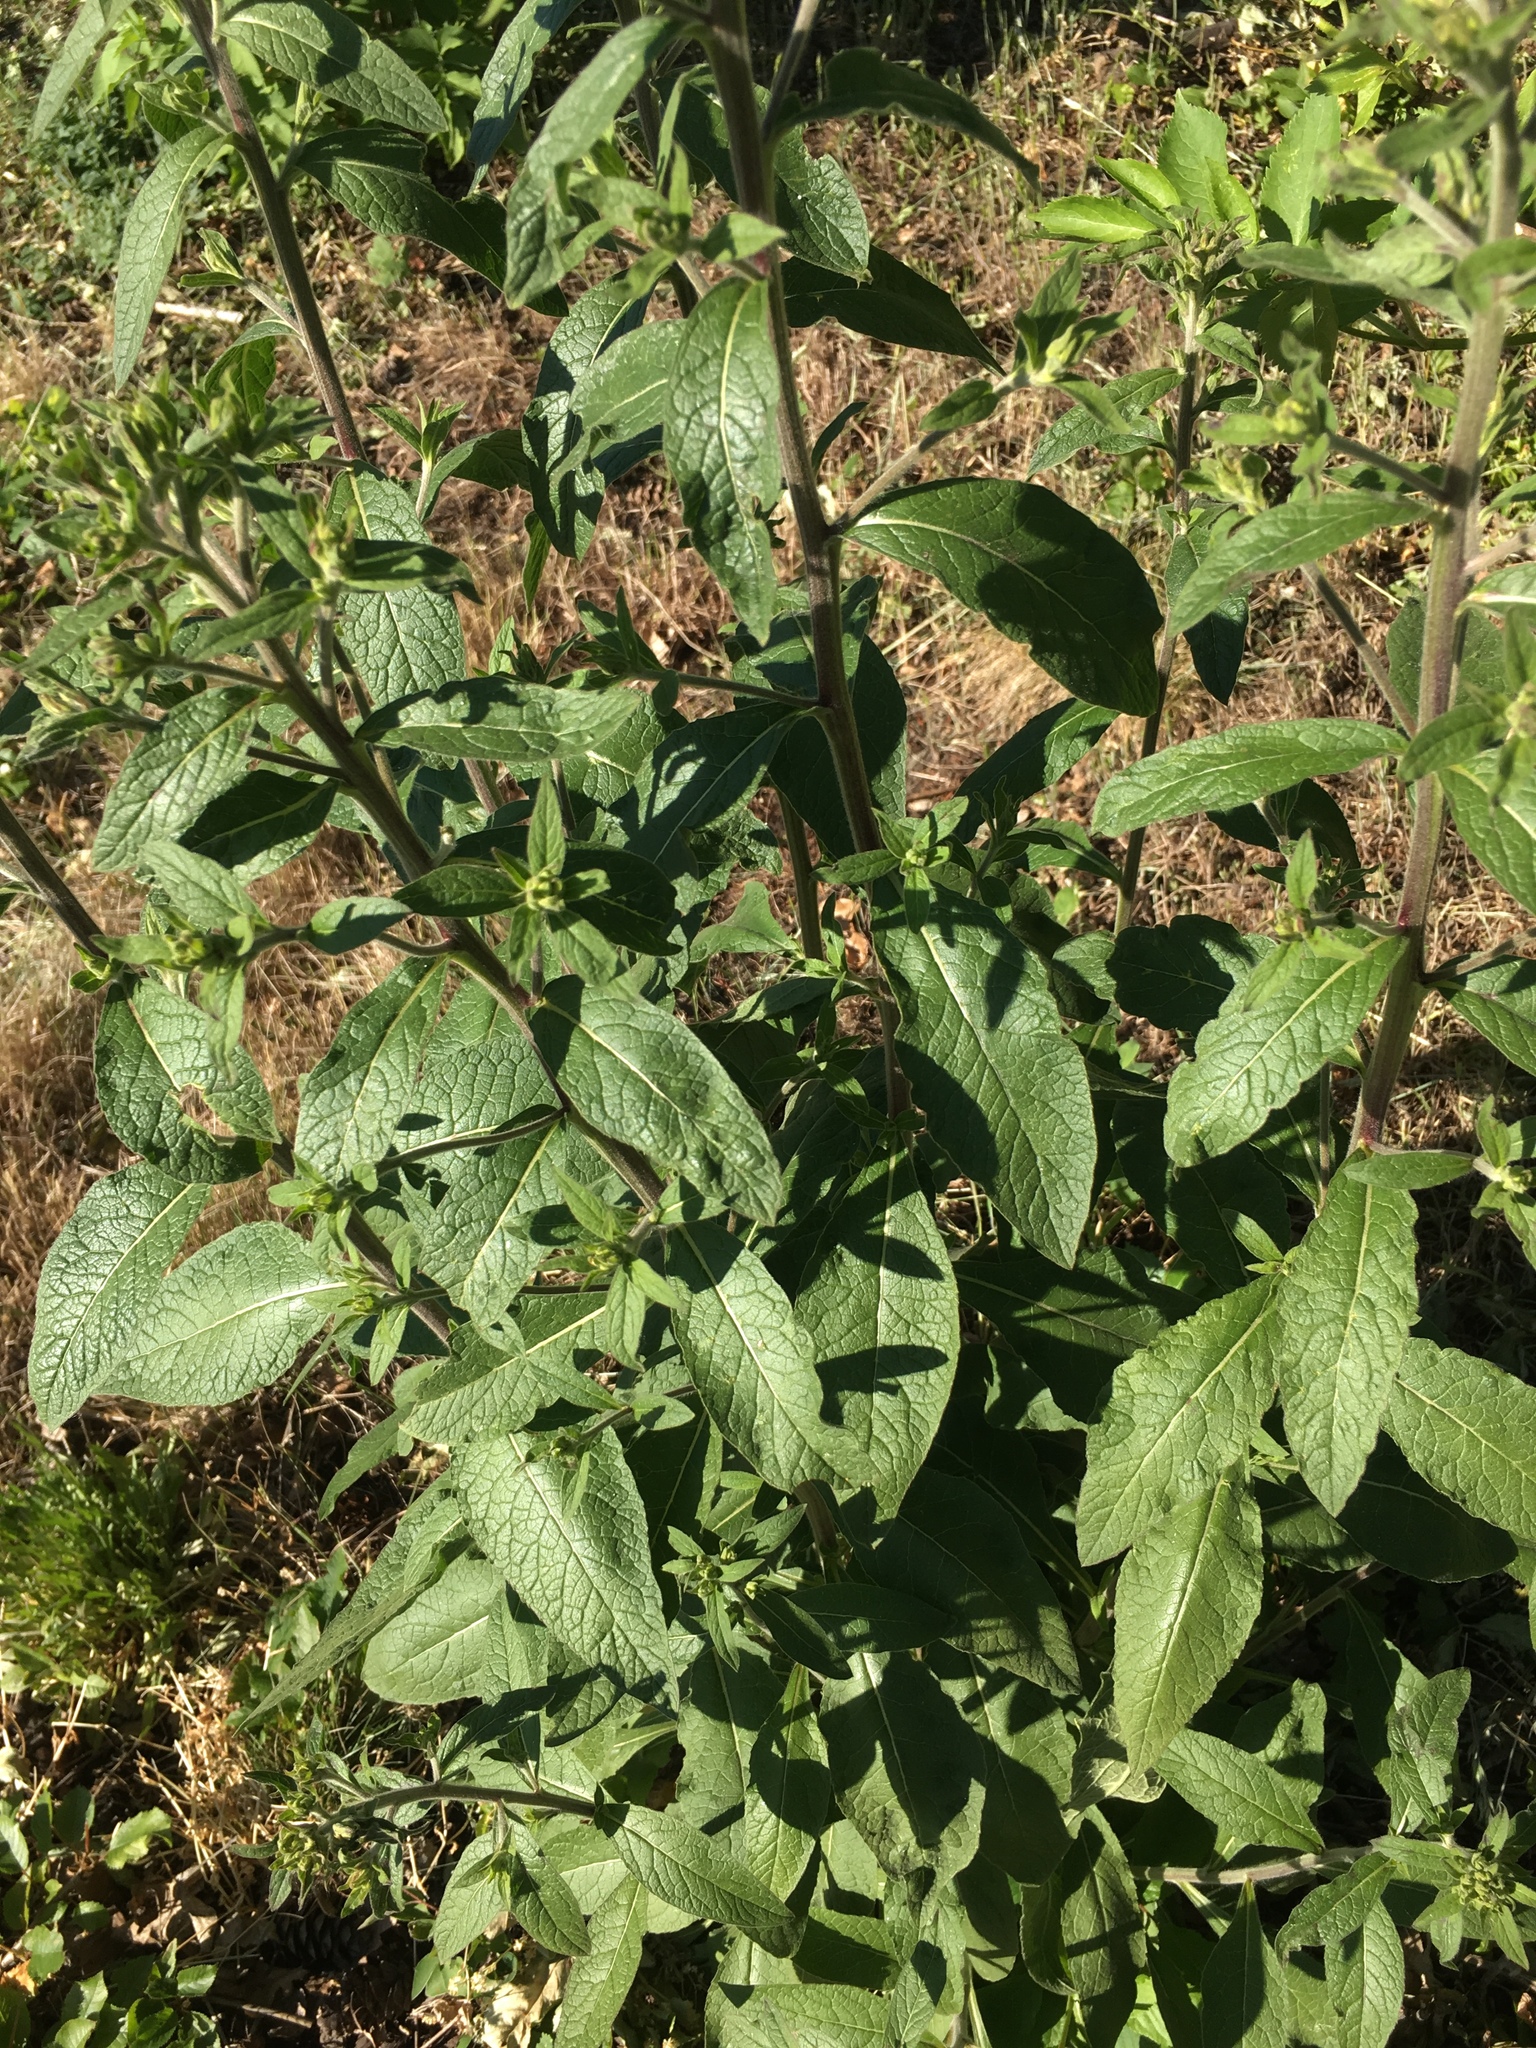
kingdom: Plantae
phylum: Tracheophyta
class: Magnoliopsida
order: Asterales
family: Asteraceae
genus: Pentanema
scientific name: Pentanema squarrosum
